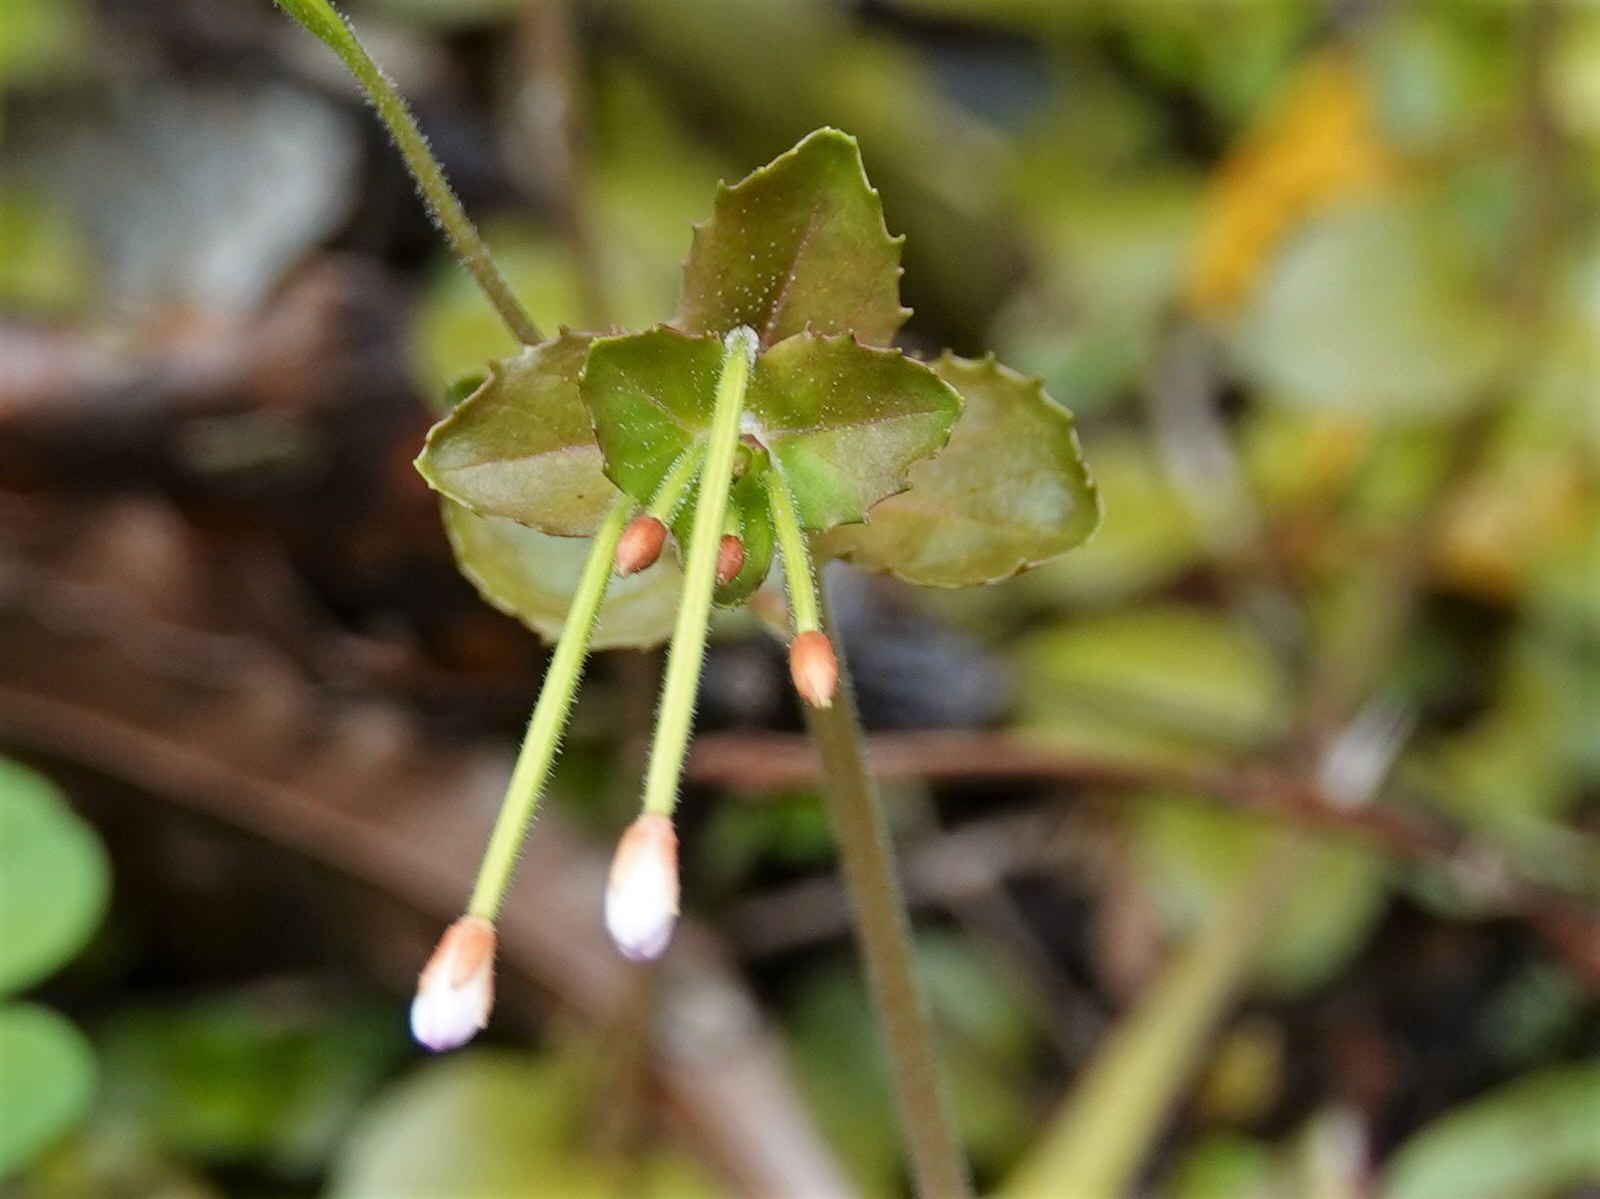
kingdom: Plantae
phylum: Tracheophyta
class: Magnoliopsida
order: Myrtales
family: Onagraceae
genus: Epilobium
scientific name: Epilobium rotundifolium
